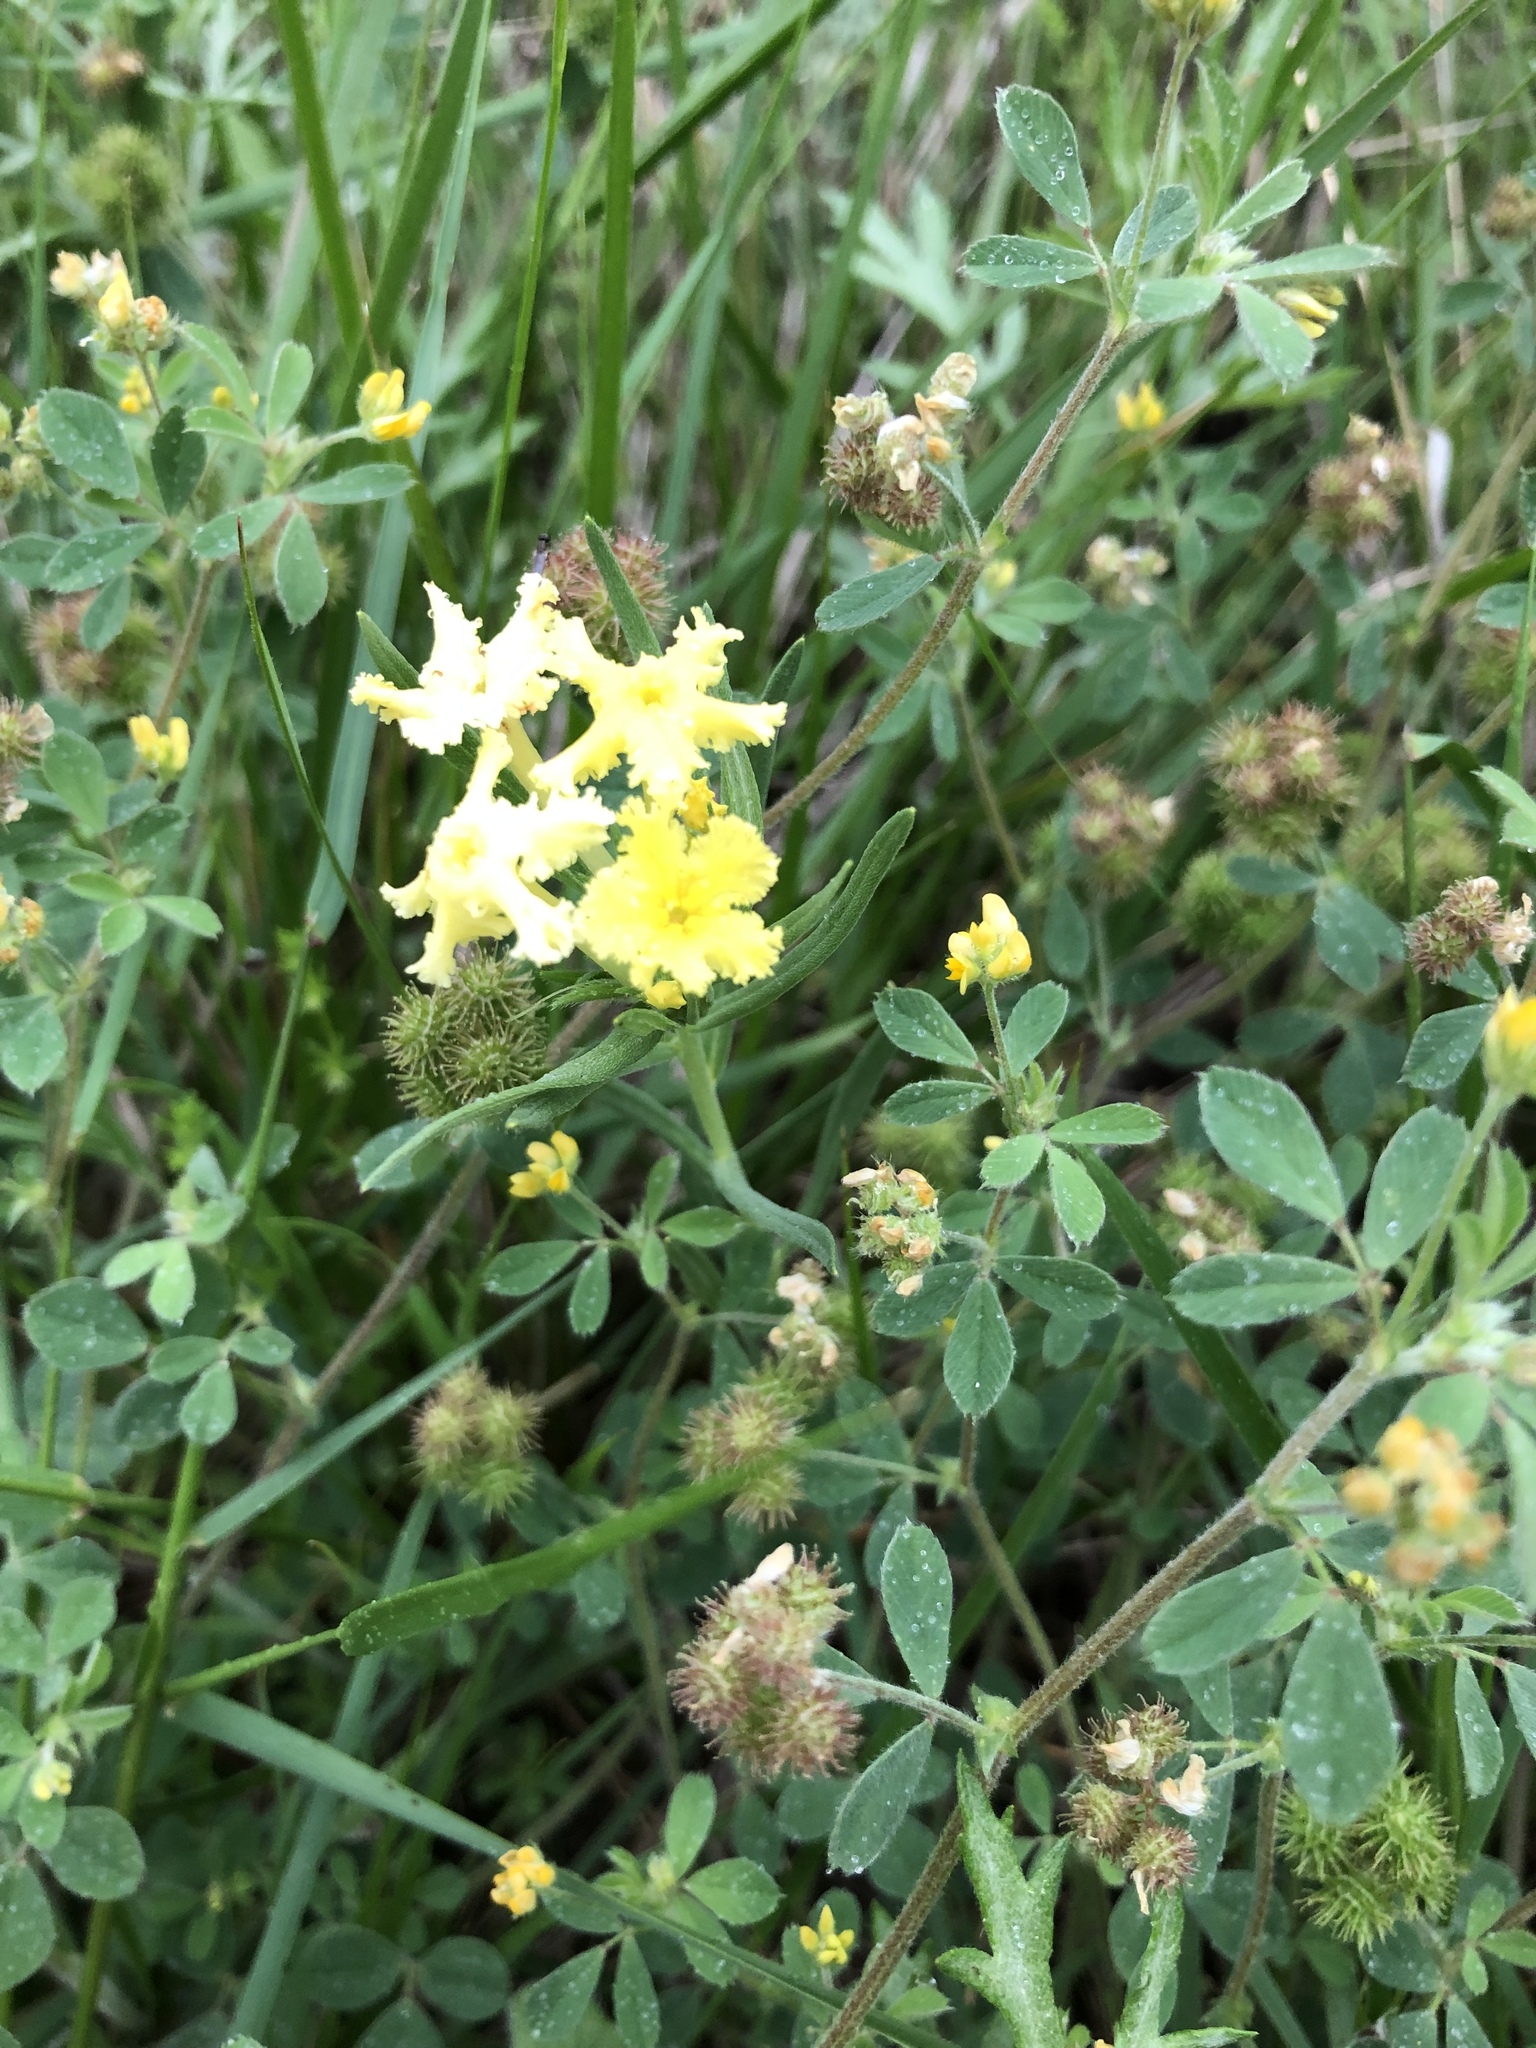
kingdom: Plantae
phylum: Tracheophyta
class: Magnoliopsida
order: Fabales
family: Fabaceae
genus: Medicago
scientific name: Medicago minima
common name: Little bur-clover
